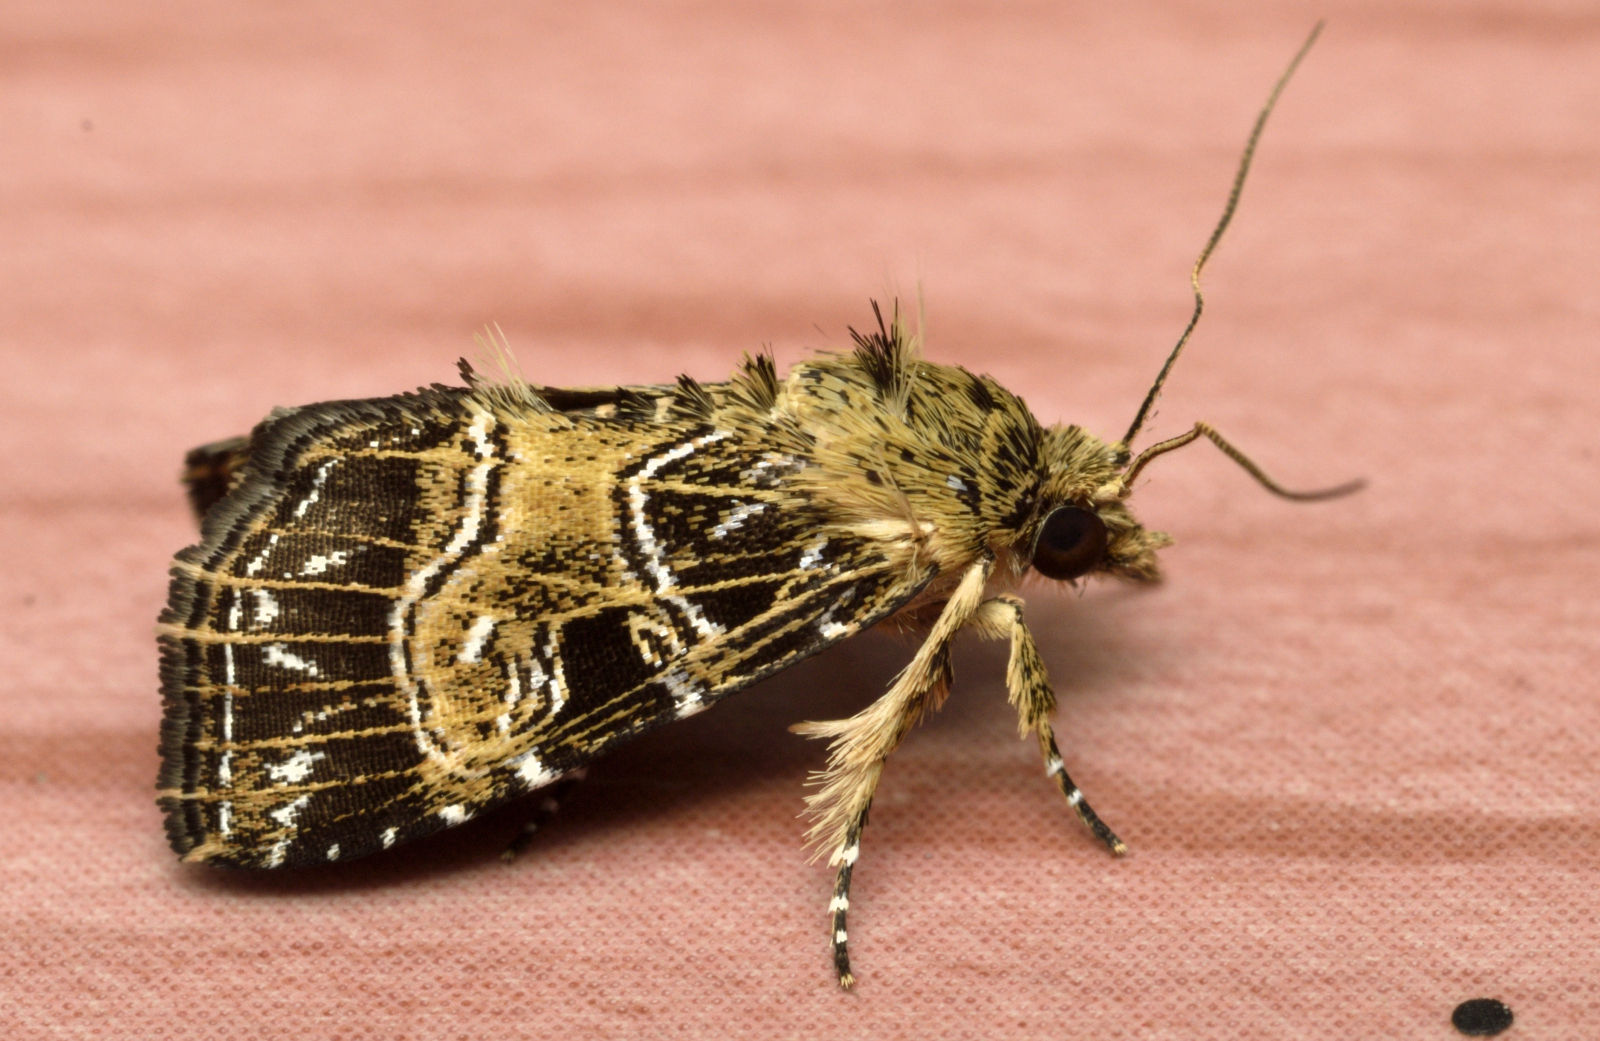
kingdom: Animalia
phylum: Arthropoda
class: Insecta
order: Lepidoptera
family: Noctuidae
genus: Callopistria
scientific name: Callopistria minor
